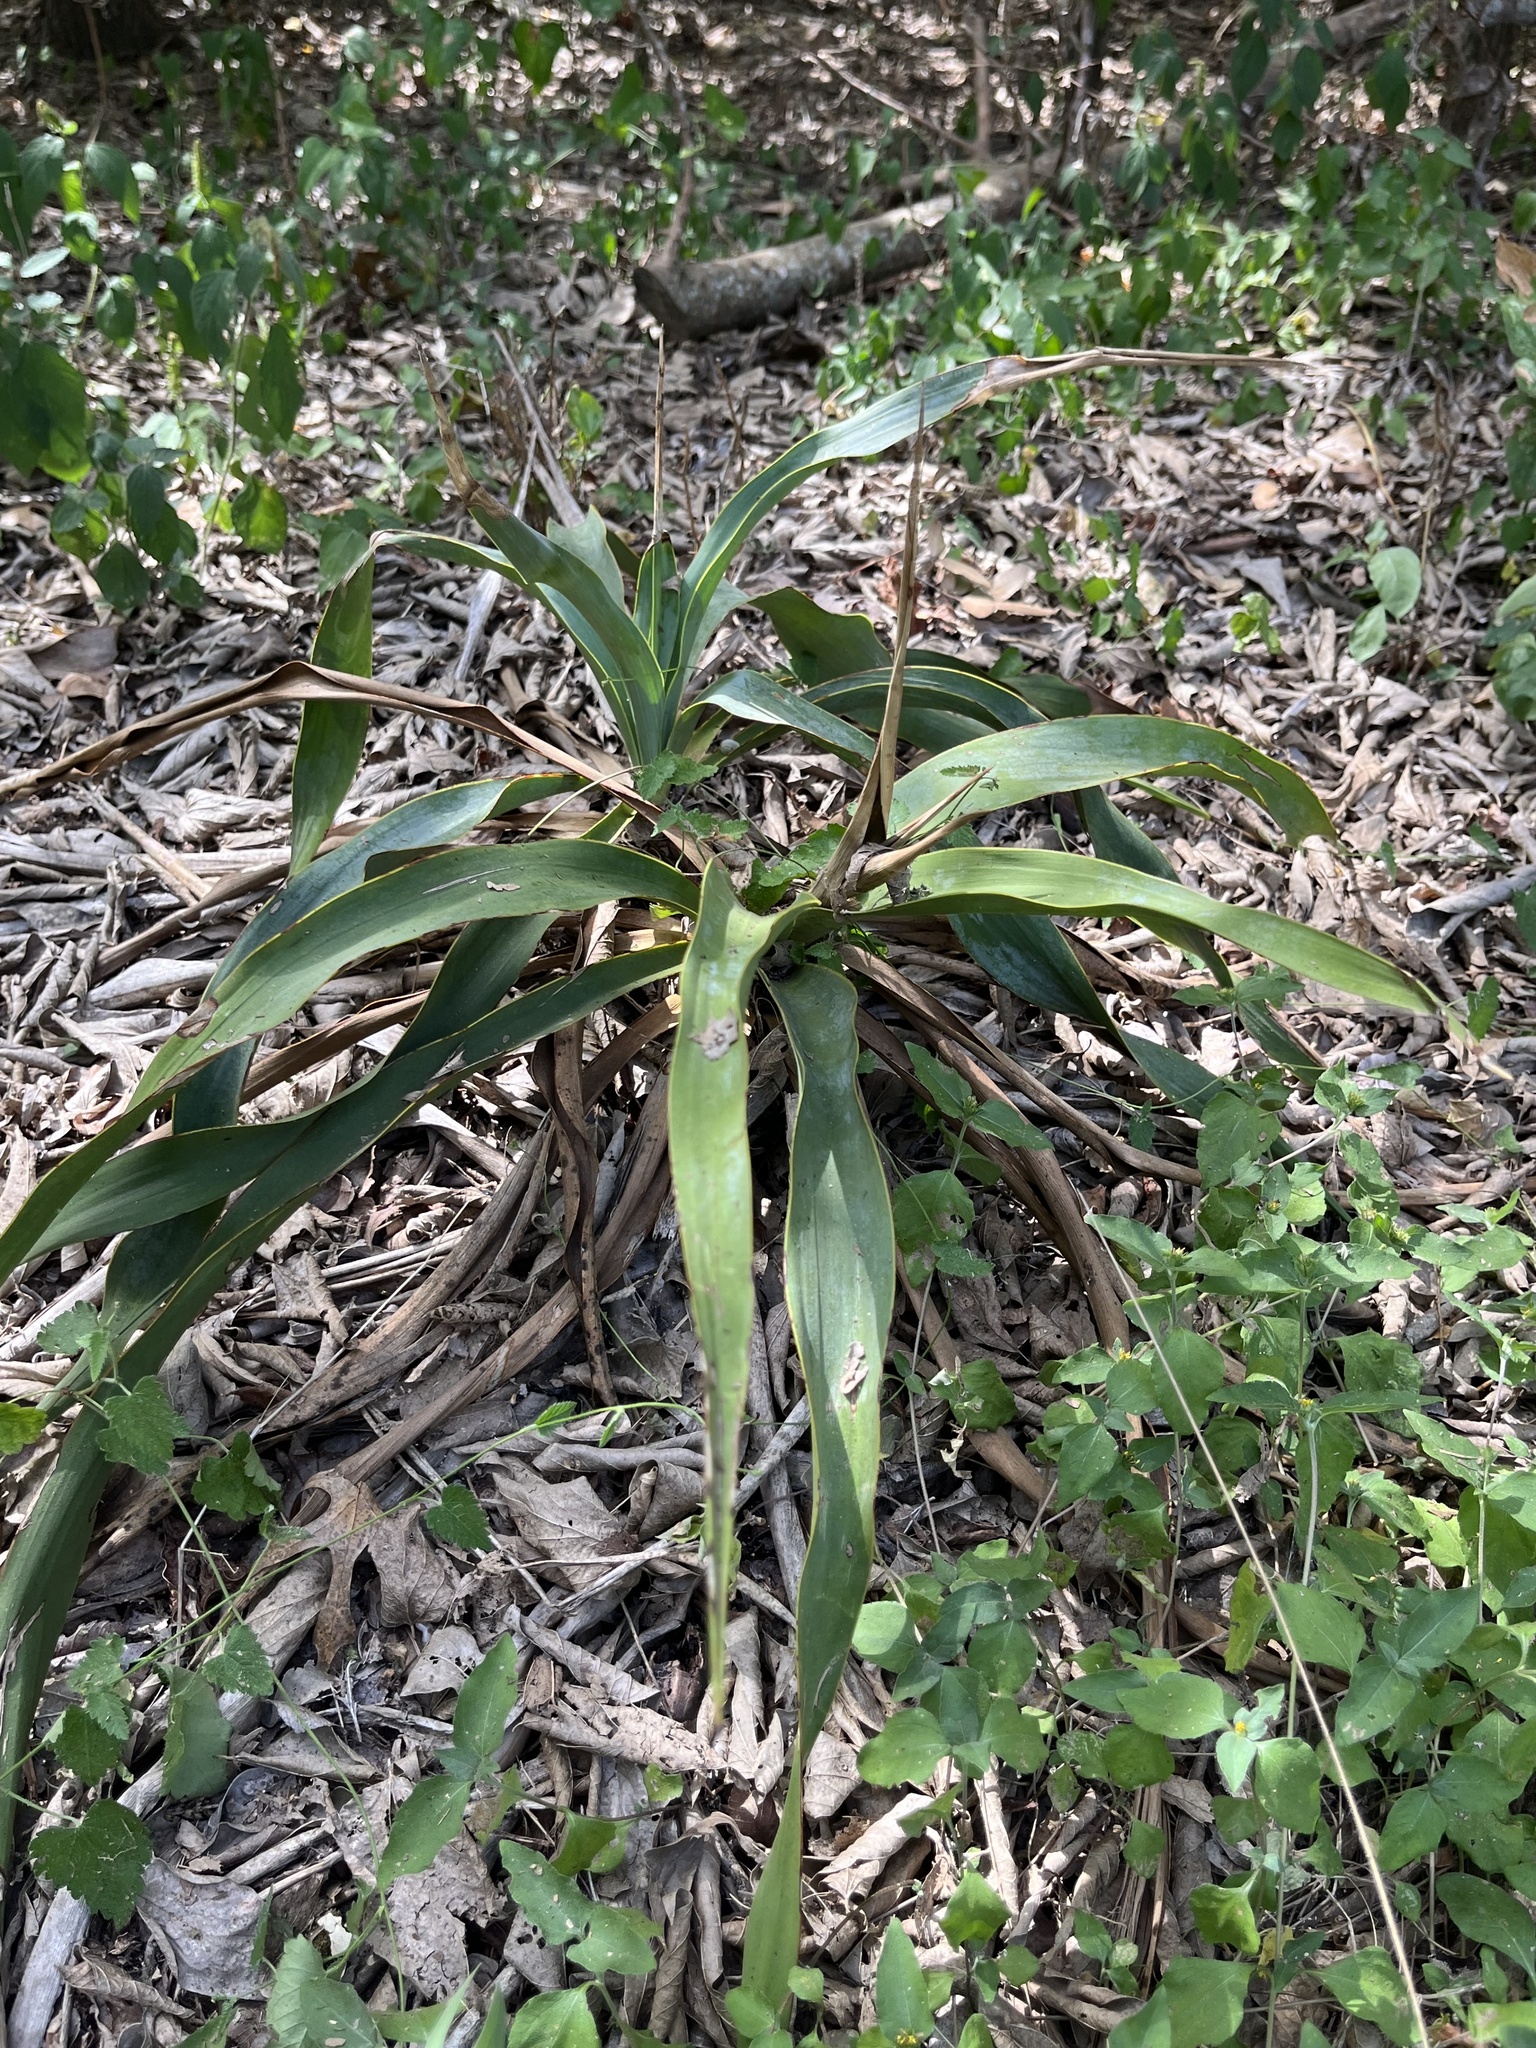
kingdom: Plantae
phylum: Tracheophyta
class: Liliopsida
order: Asparagales
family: Asparagaceae
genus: Yucca
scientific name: Yucca rupicola
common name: Twisted-leaf spanish-dagger
